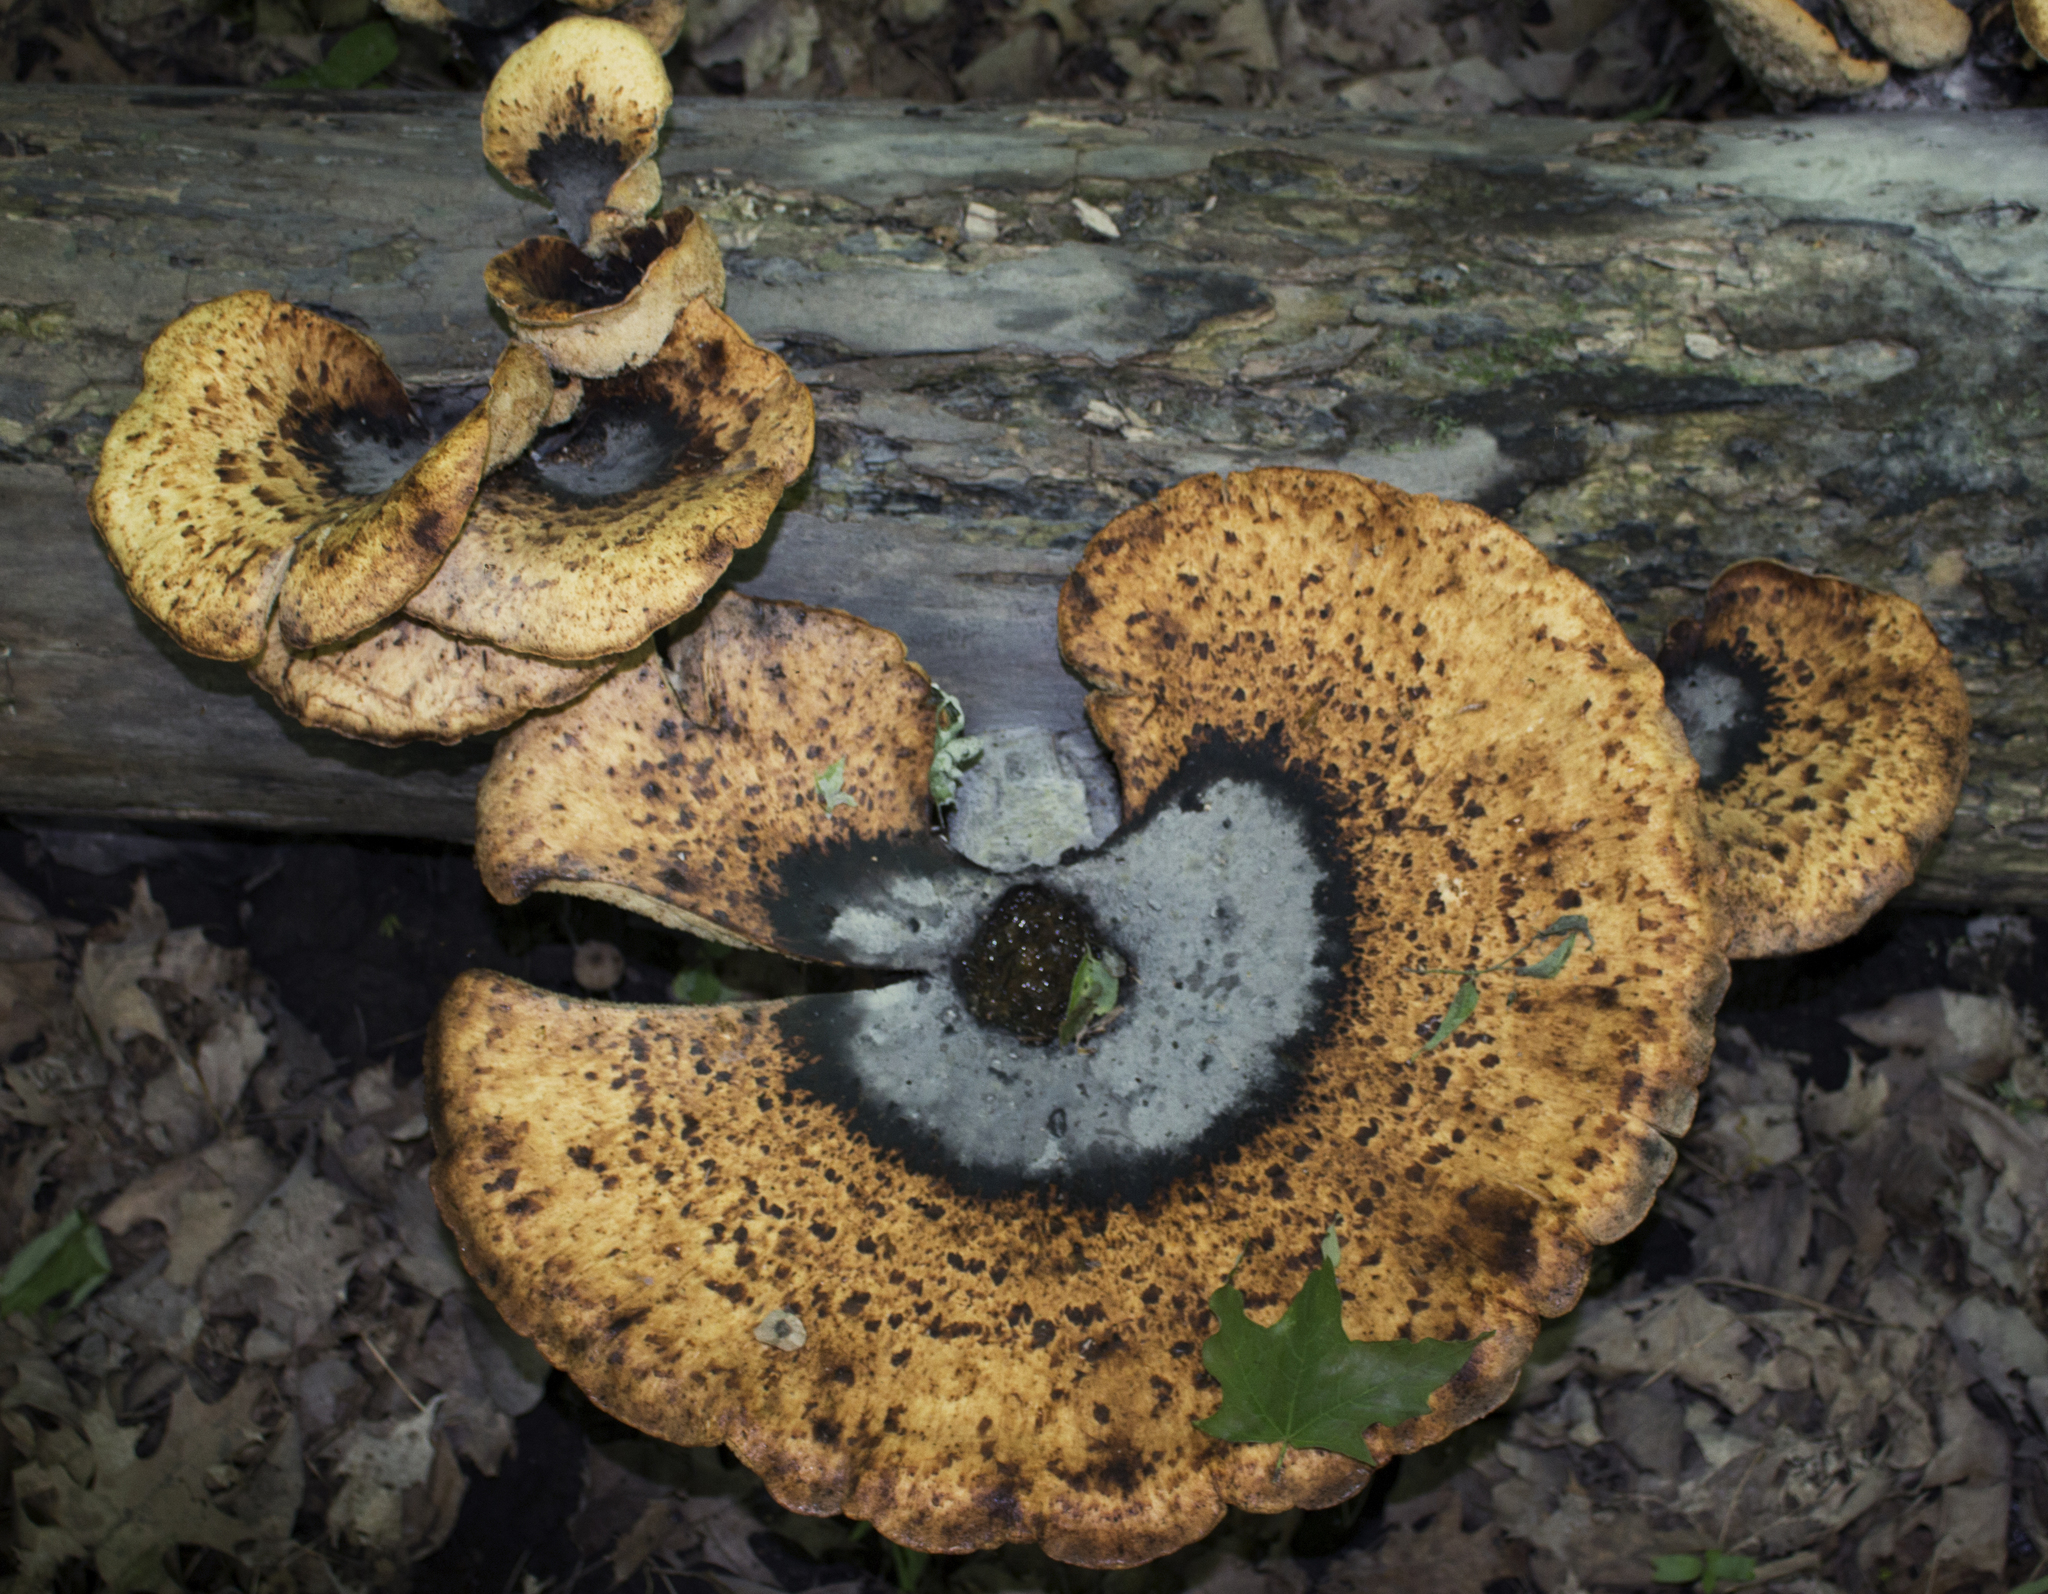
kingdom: Fungi
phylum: Basidiomycota
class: Agaricomycetes
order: Polyporales
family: Polyporaceae
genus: Cerioporus
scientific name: Cerioporus squamosus
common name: Dryad's saddle
